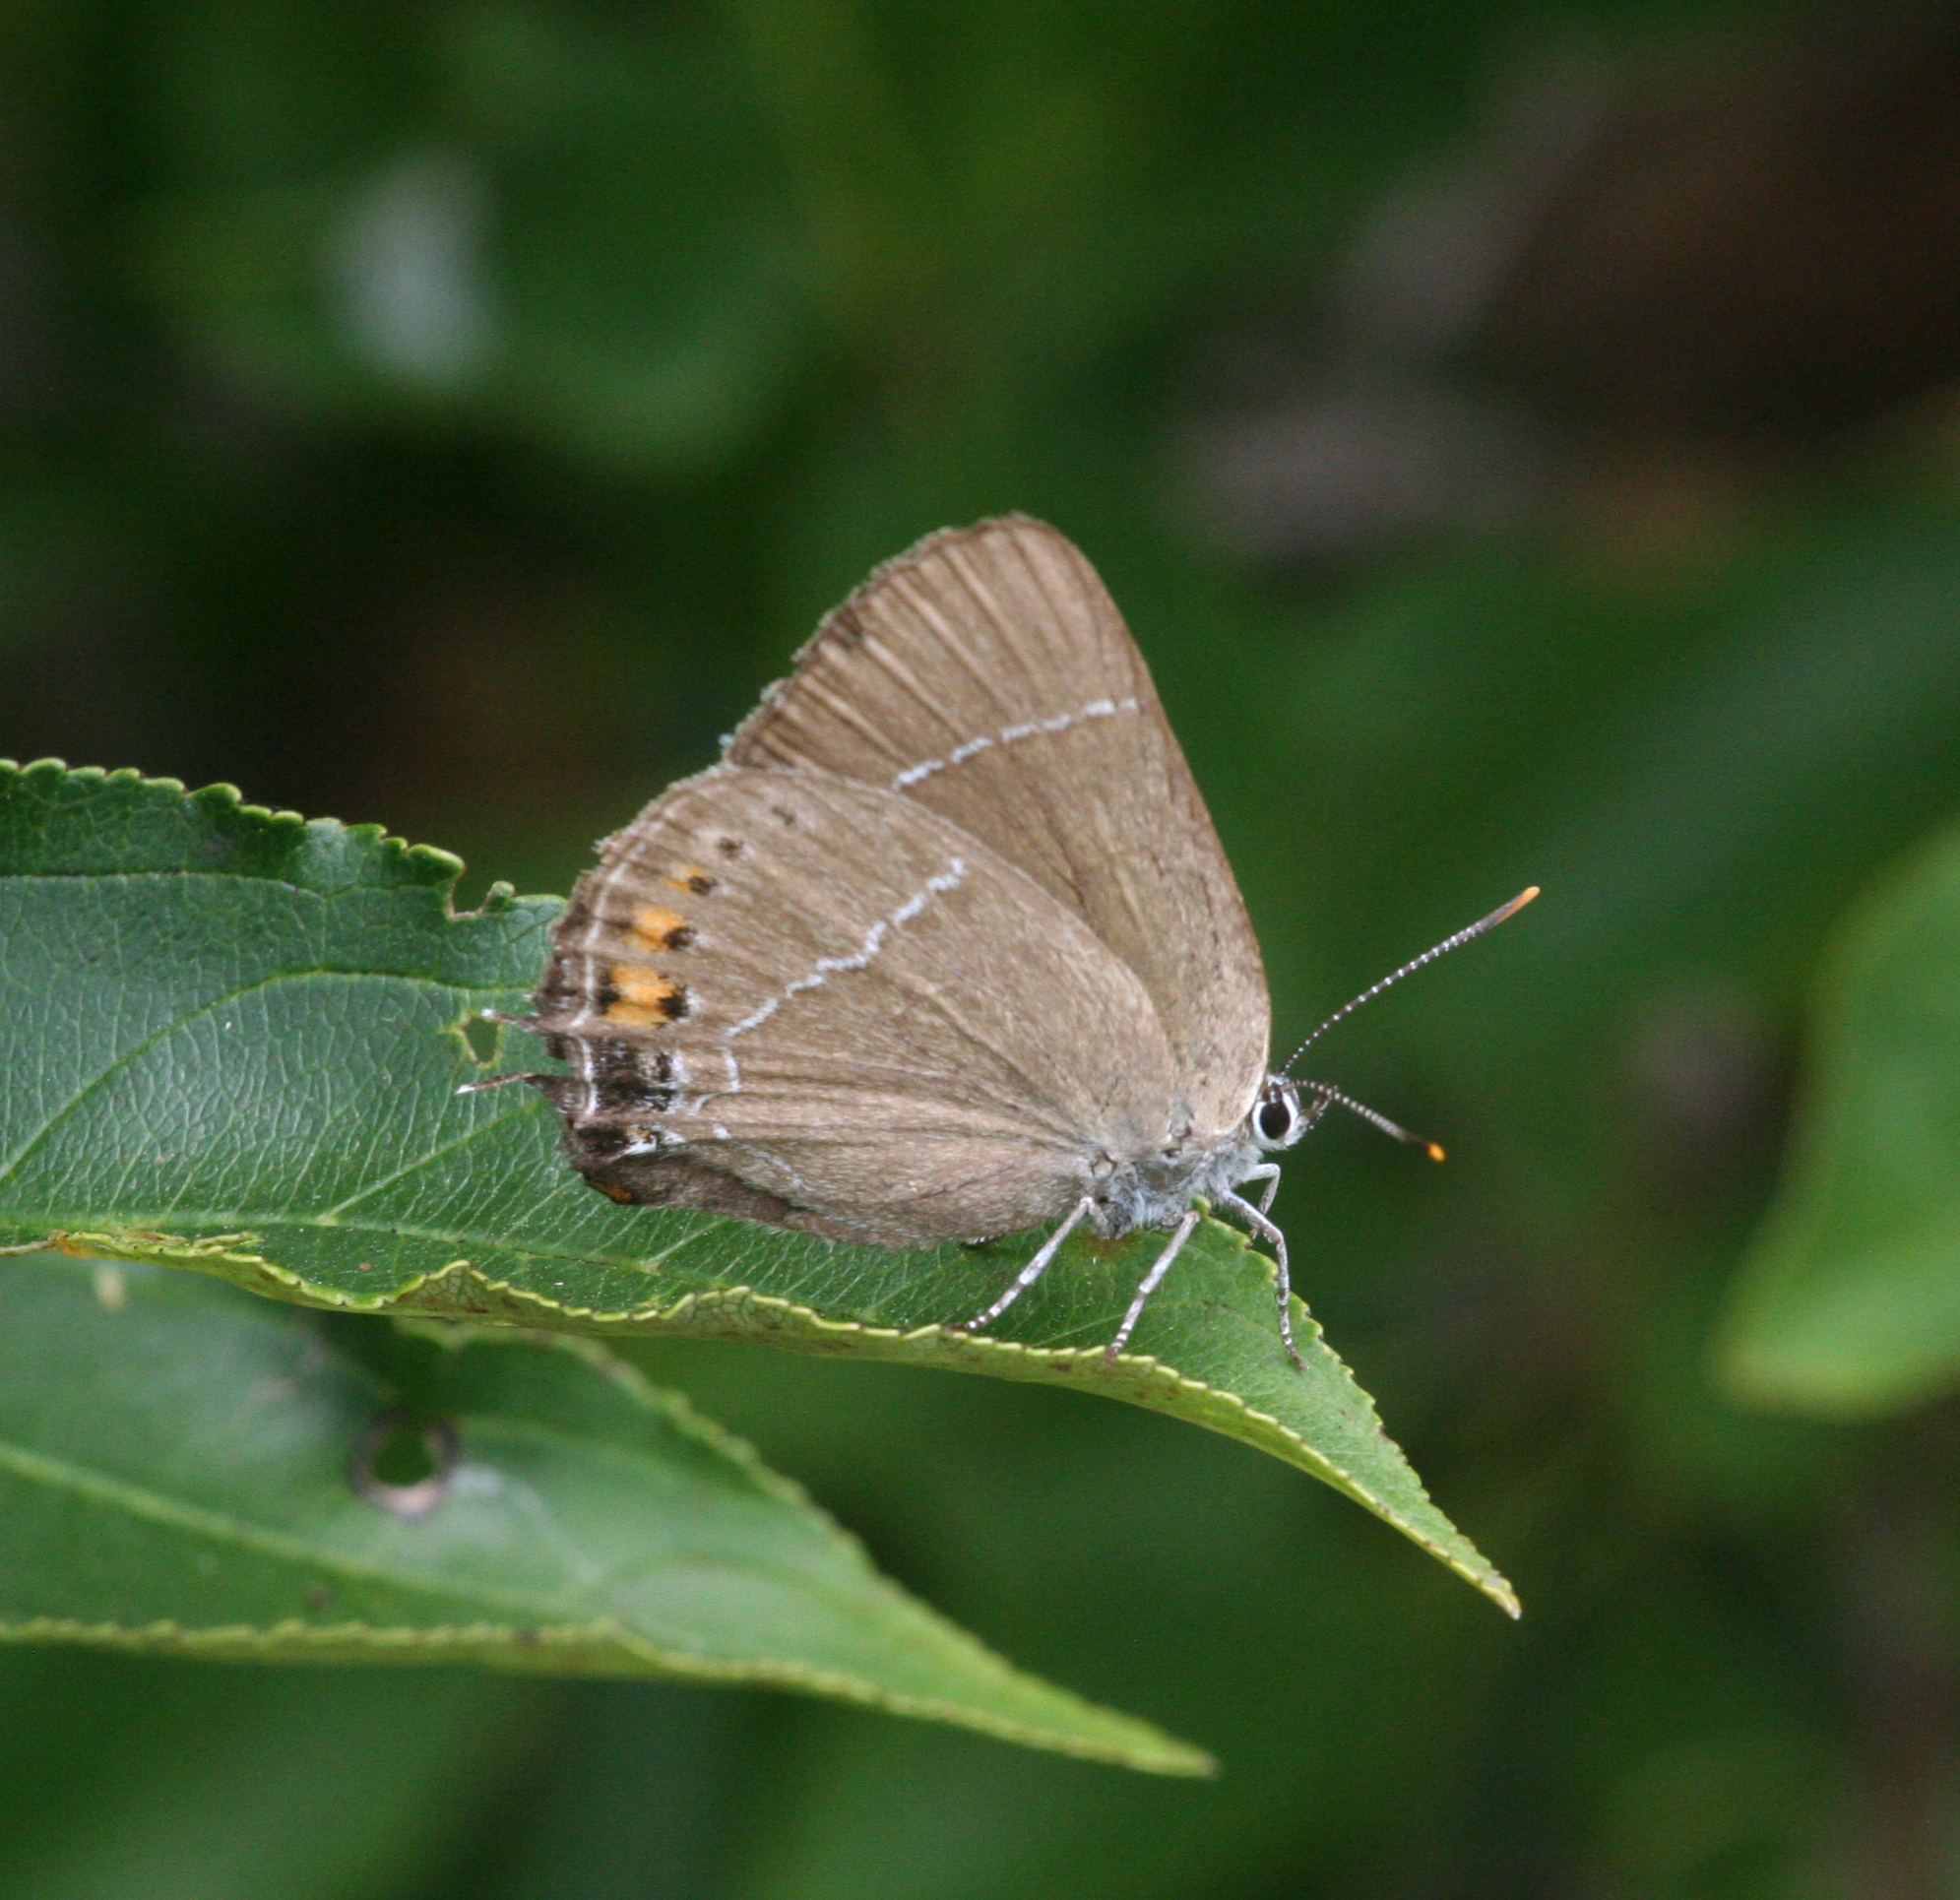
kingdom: Animalia
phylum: Arthropoda
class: Insecta
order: Lepidoptera
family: Lycaenidae
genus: Satyrium
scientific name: Satyrium
